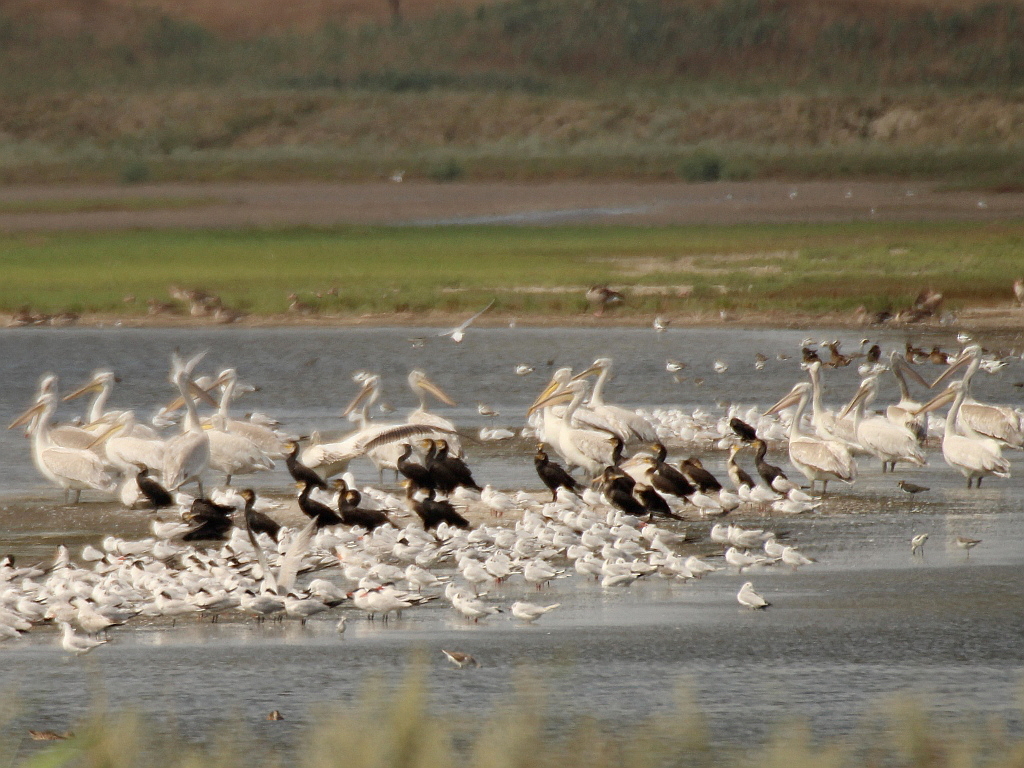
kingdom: Animalia
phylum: Chordata
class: Aves
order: Pelecaniformes
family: Pelecanidae
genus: Pelecanus
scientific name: Pelecanus crispus
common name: Dalmatian pelican
